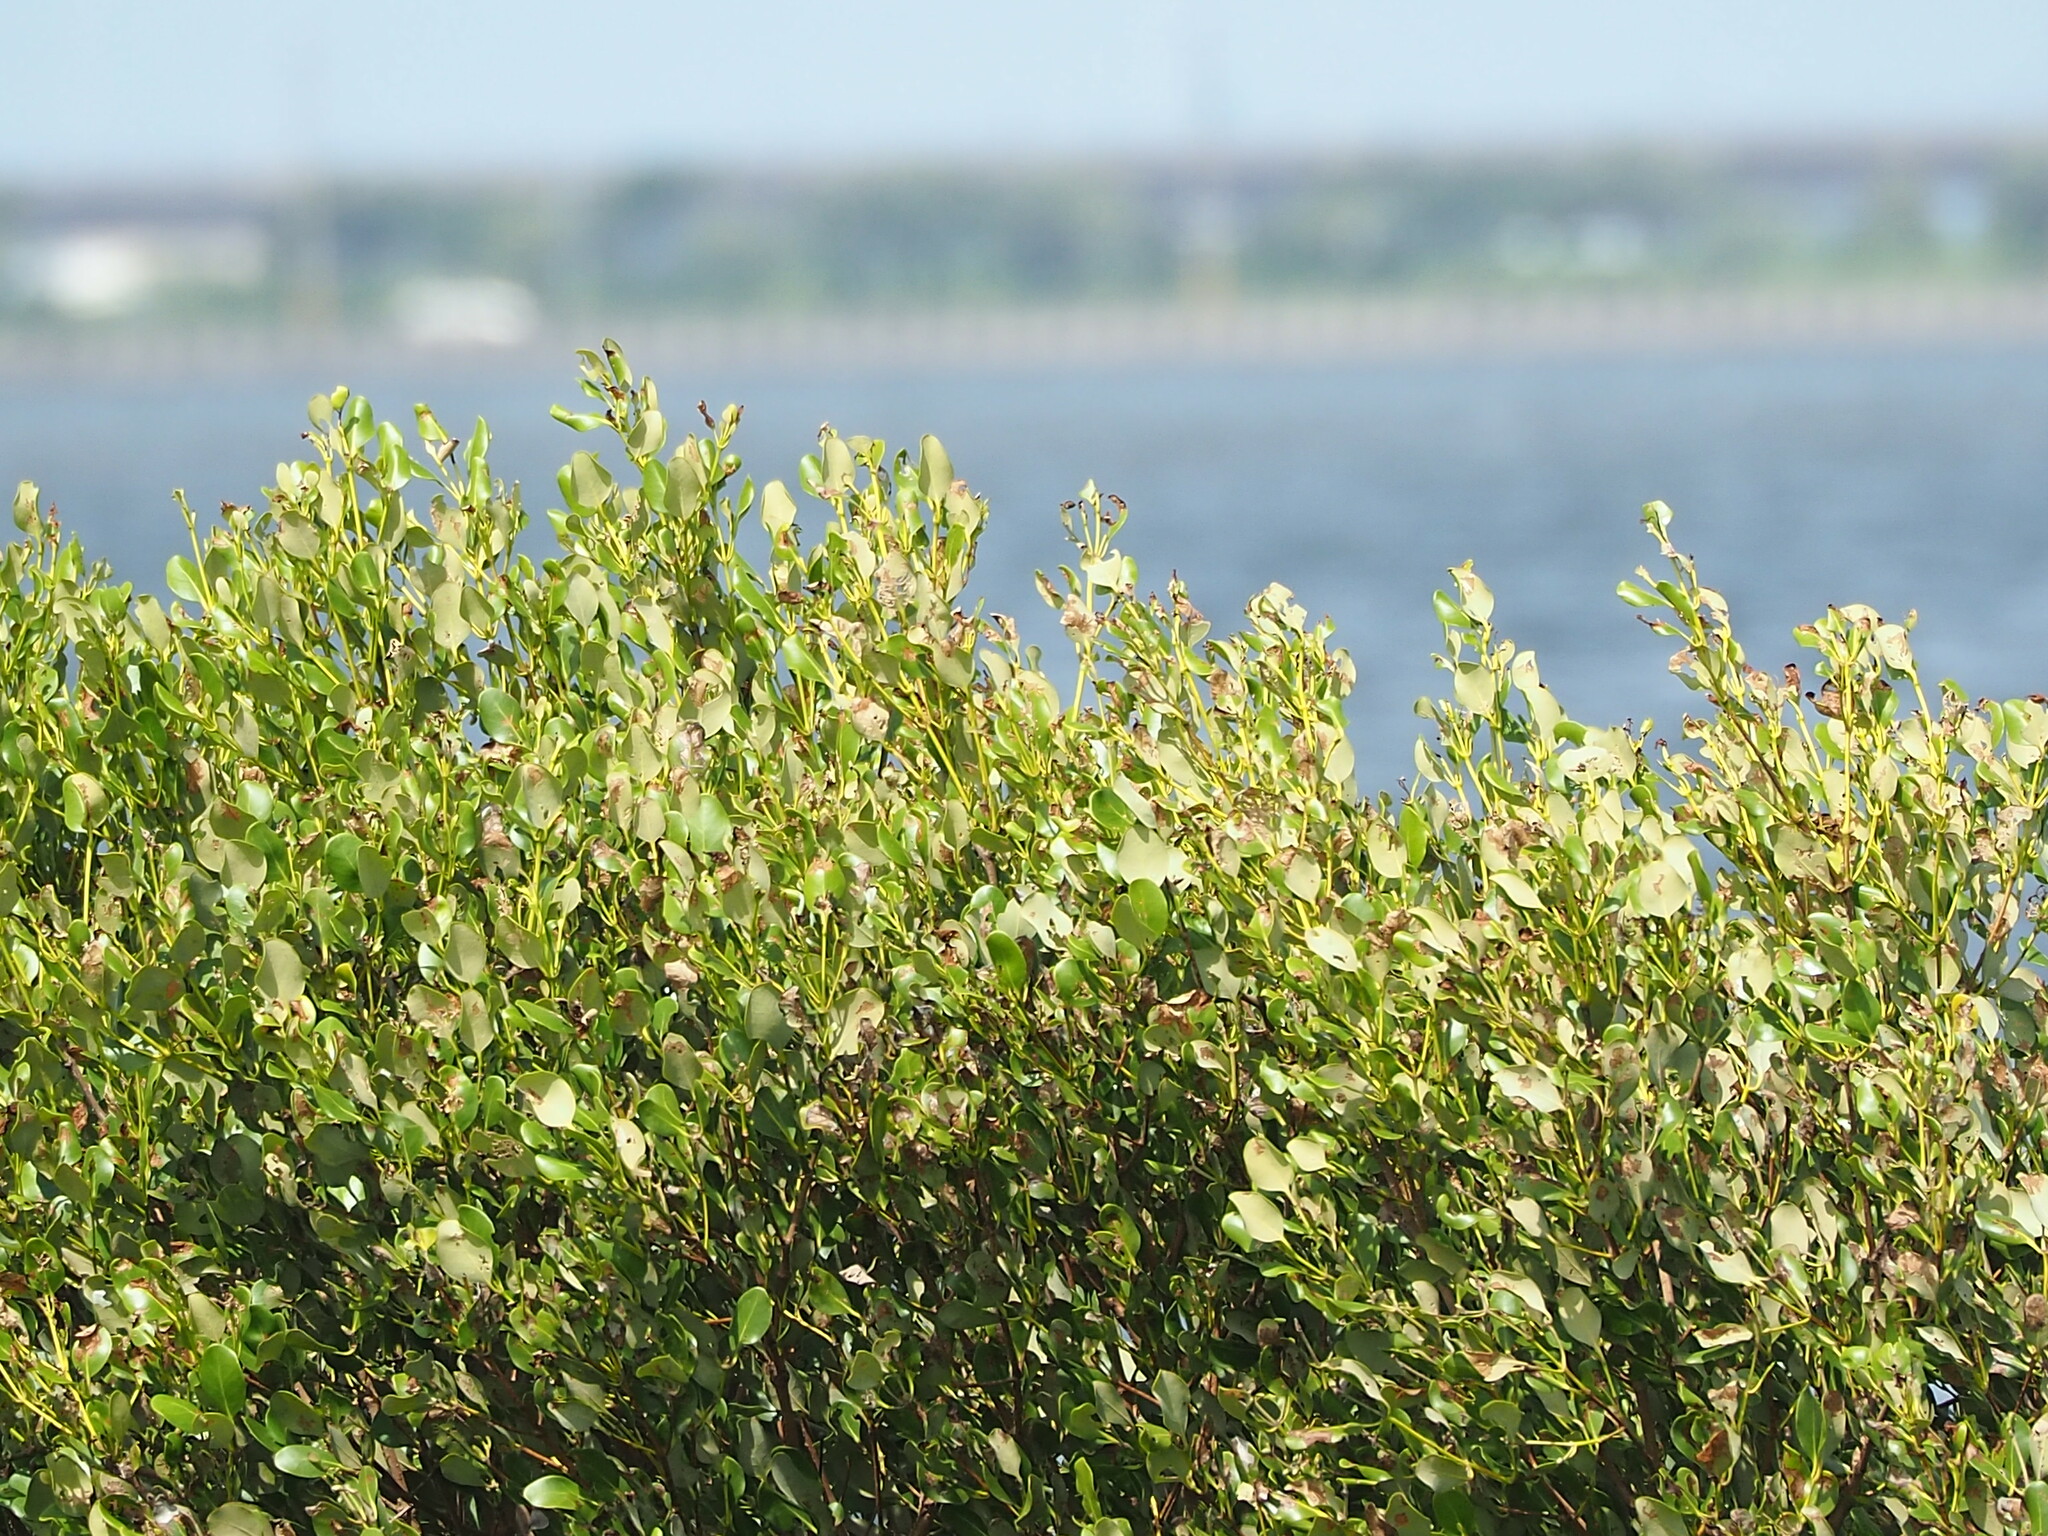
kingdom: Plantae
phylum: Tracheophyta
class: Magnoliopsida
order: Lamiales
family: Acanthaceae
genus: Avicennia
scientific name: Avicennia marina
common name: Gray mangrove
